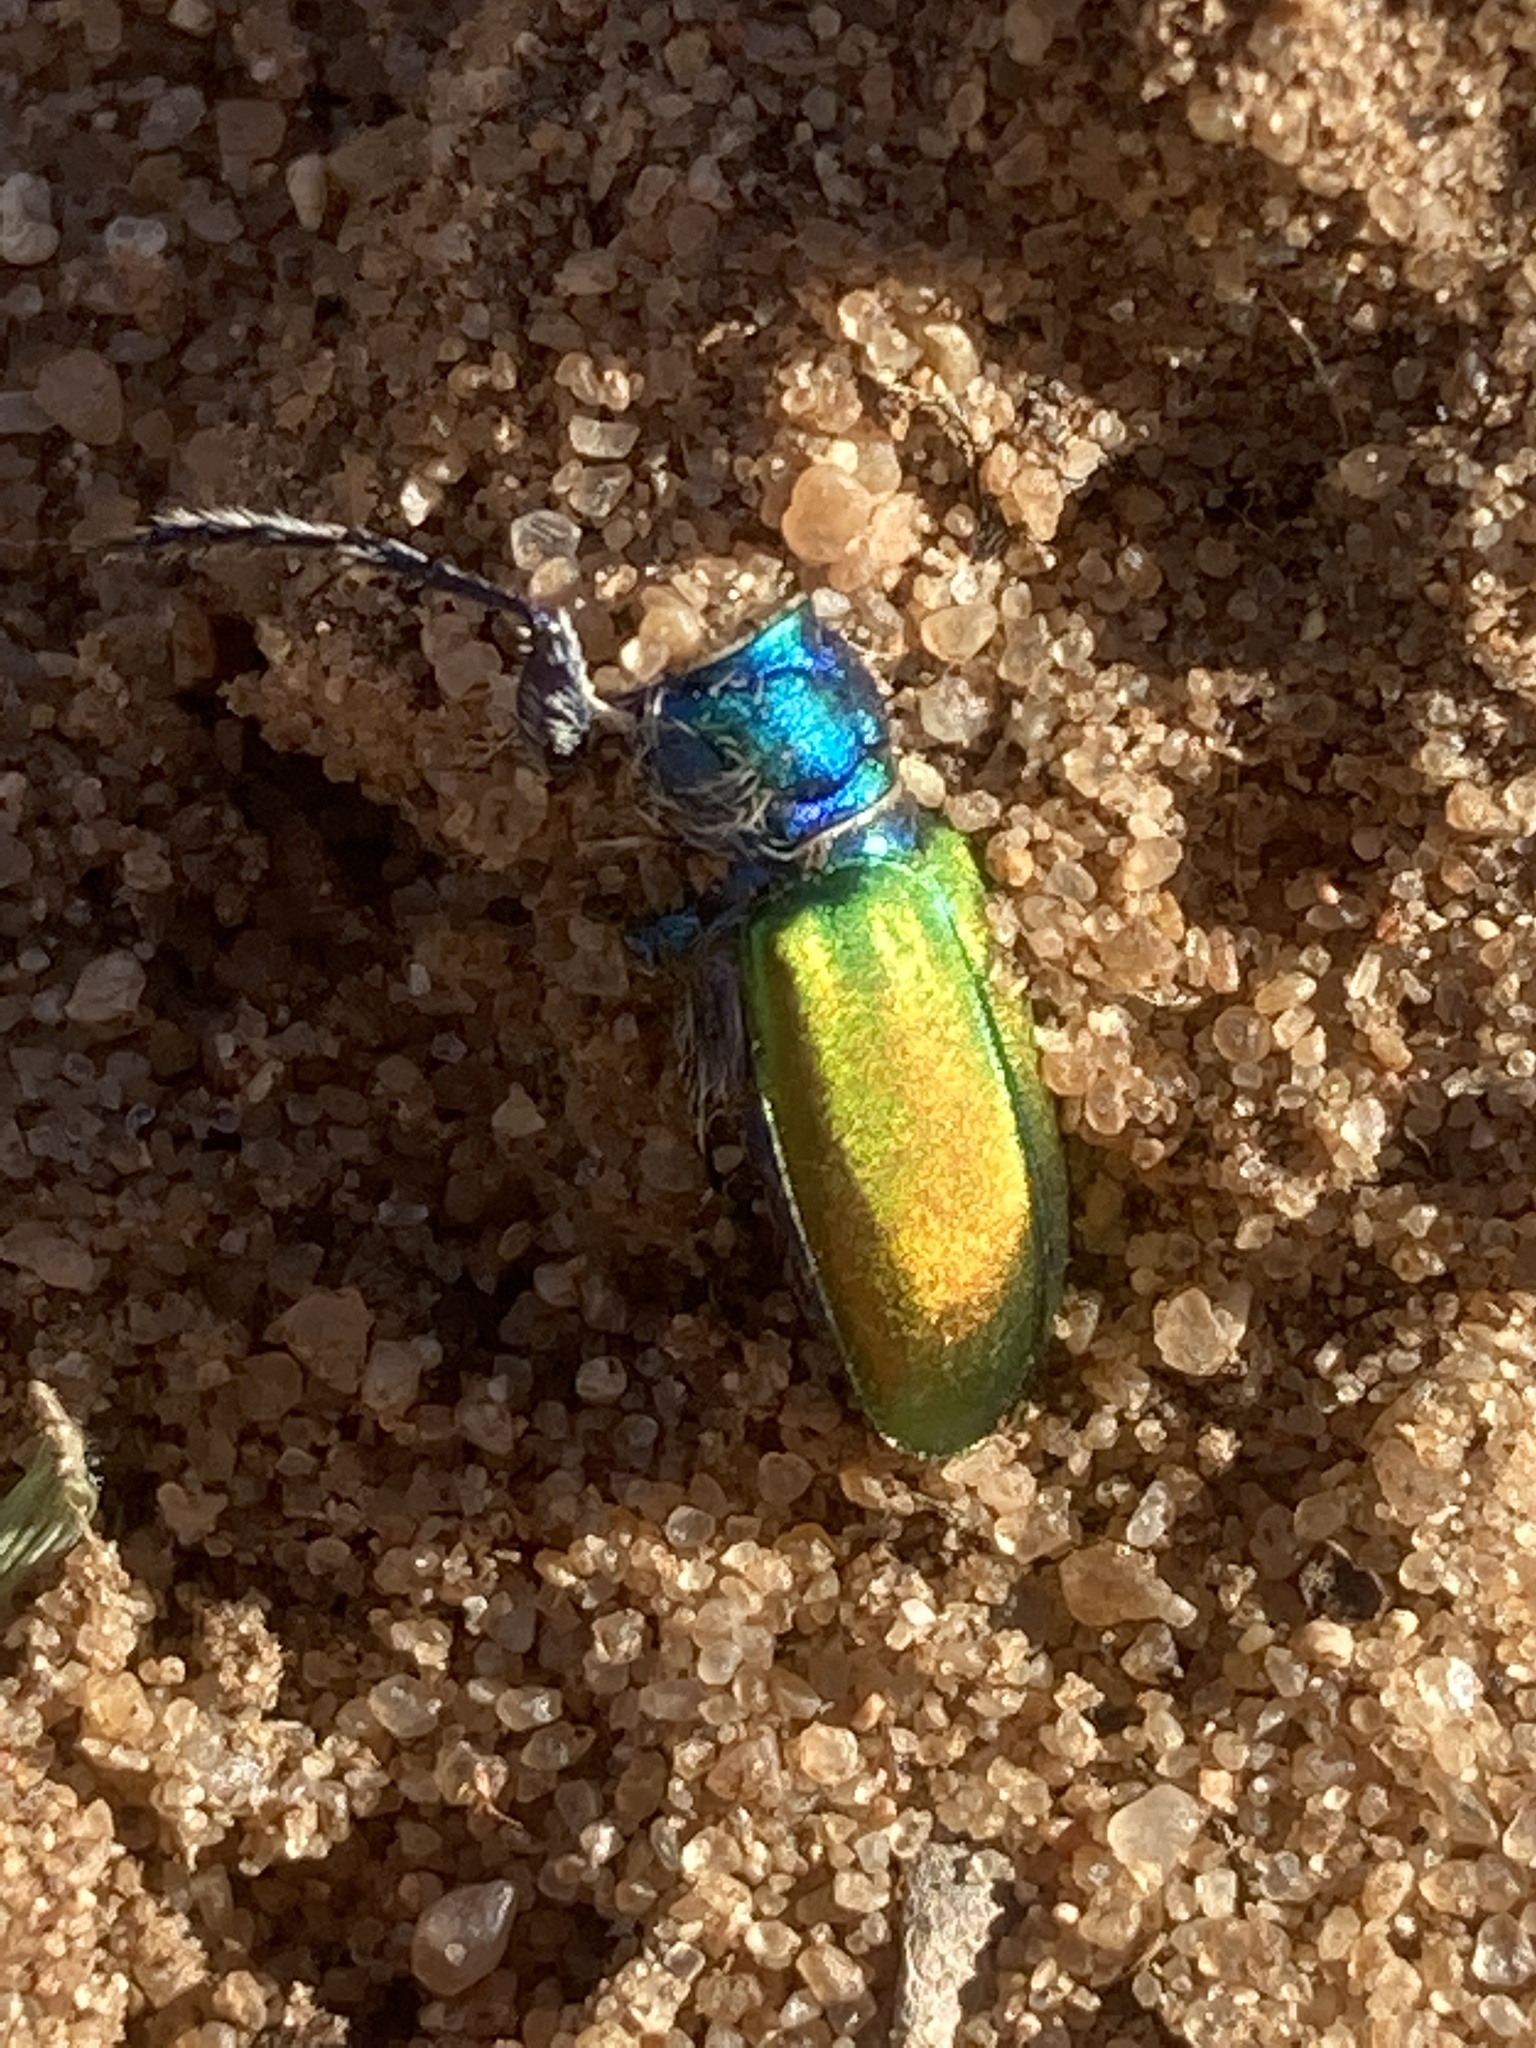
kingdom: Animalia
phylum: Arthropoda
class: Insecta
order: Coleoptera
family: Carabidae
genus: Cicindela
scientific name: Cicindela scutellaris
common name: Festive tiger beetle
